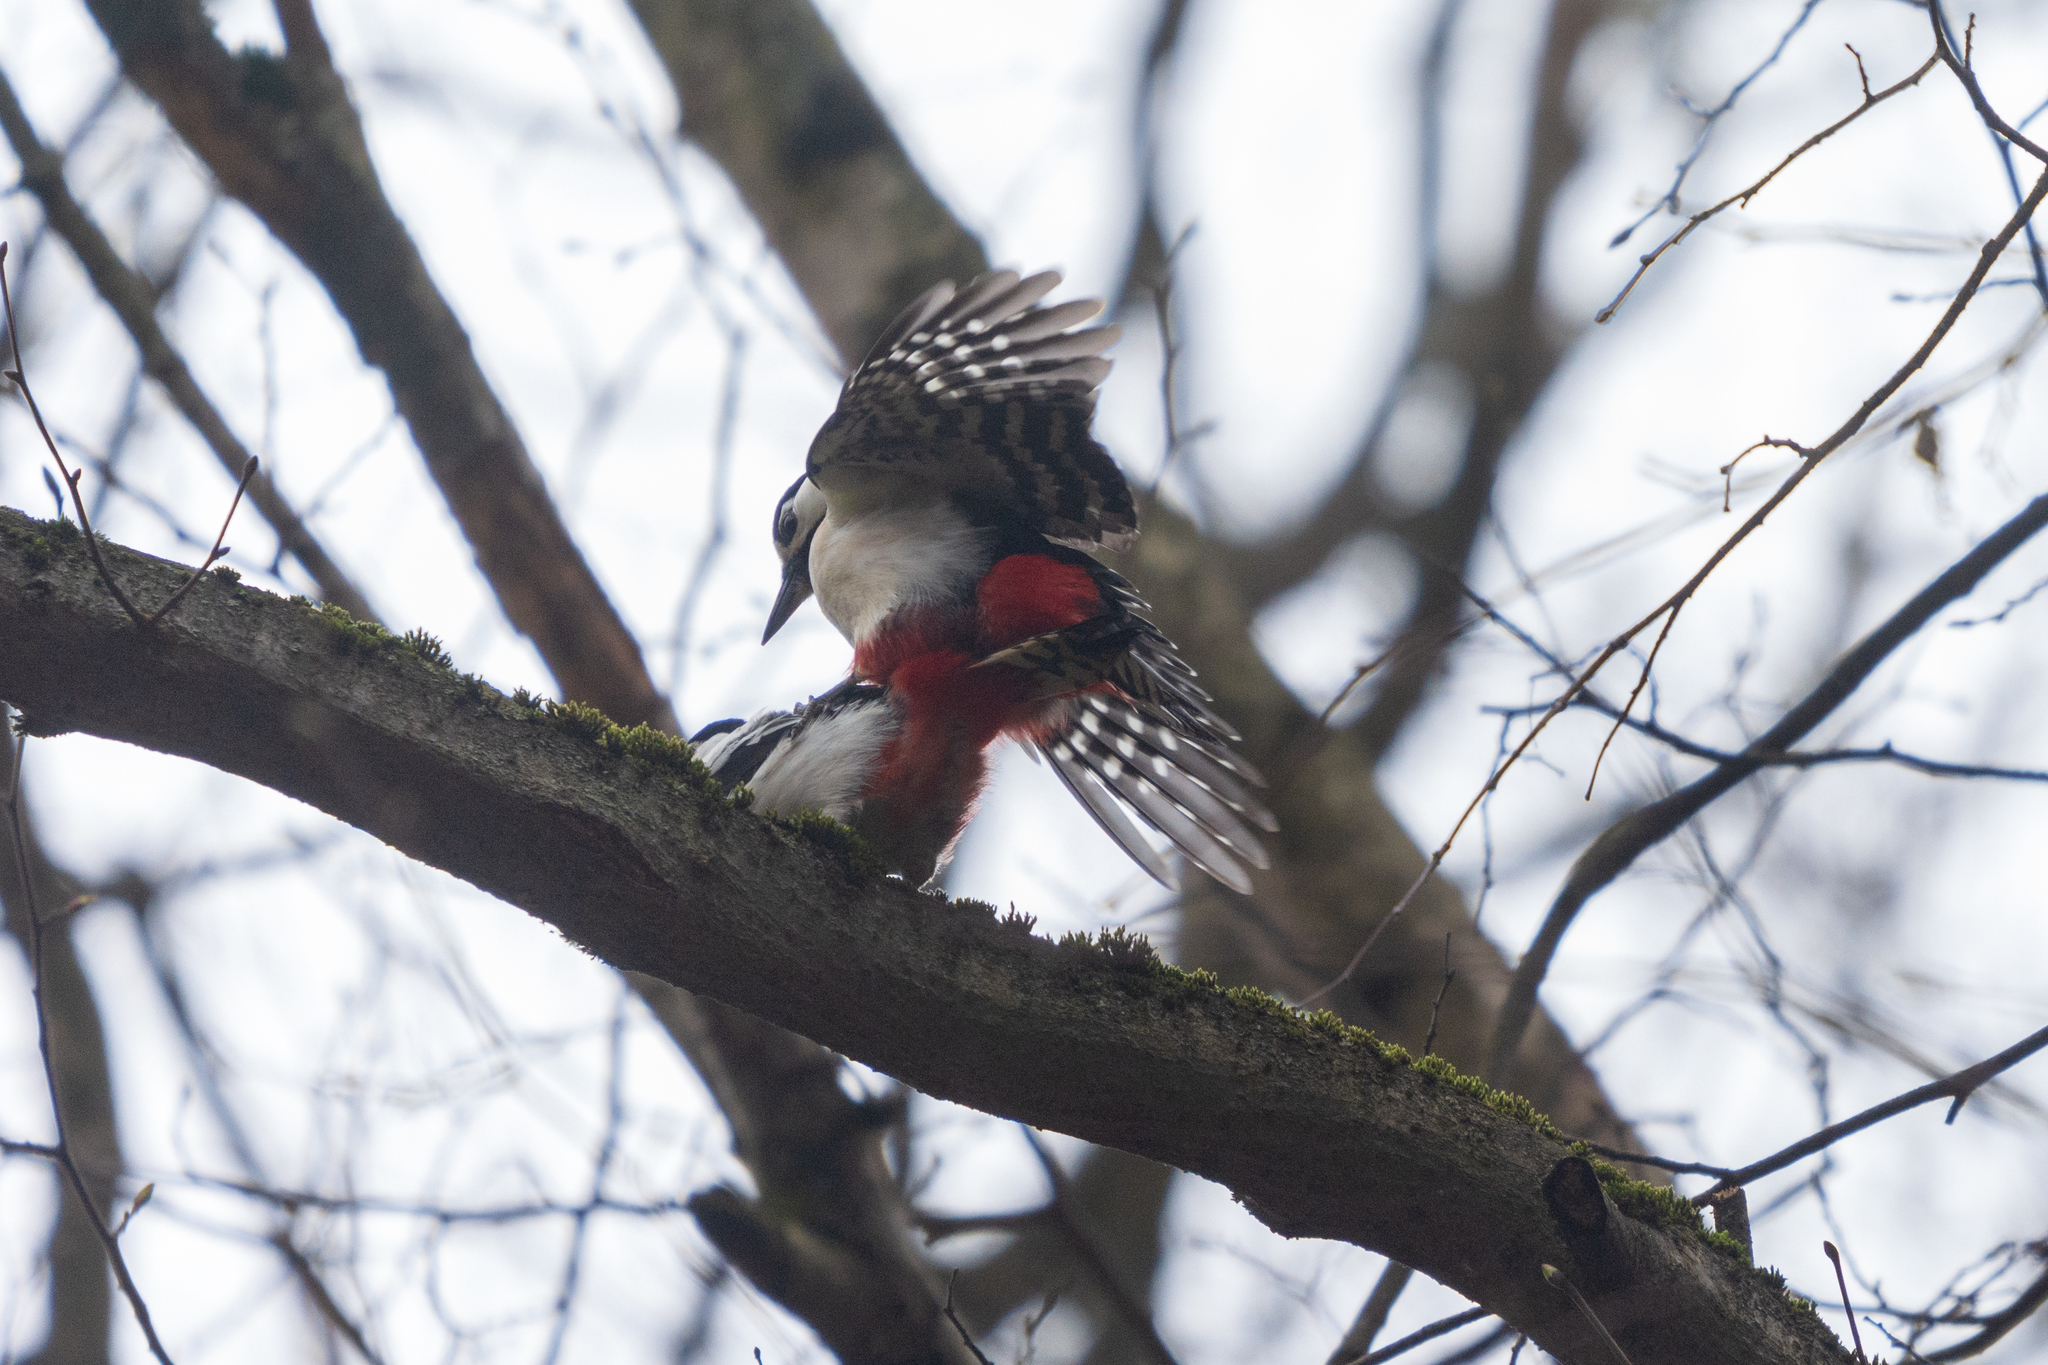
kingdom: Animalia
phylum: Chordata
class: Aves
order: Piciformes
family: Picidae
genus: Dendrocopos
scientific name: Dendrocopos major
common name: Great spotted woodpecker
